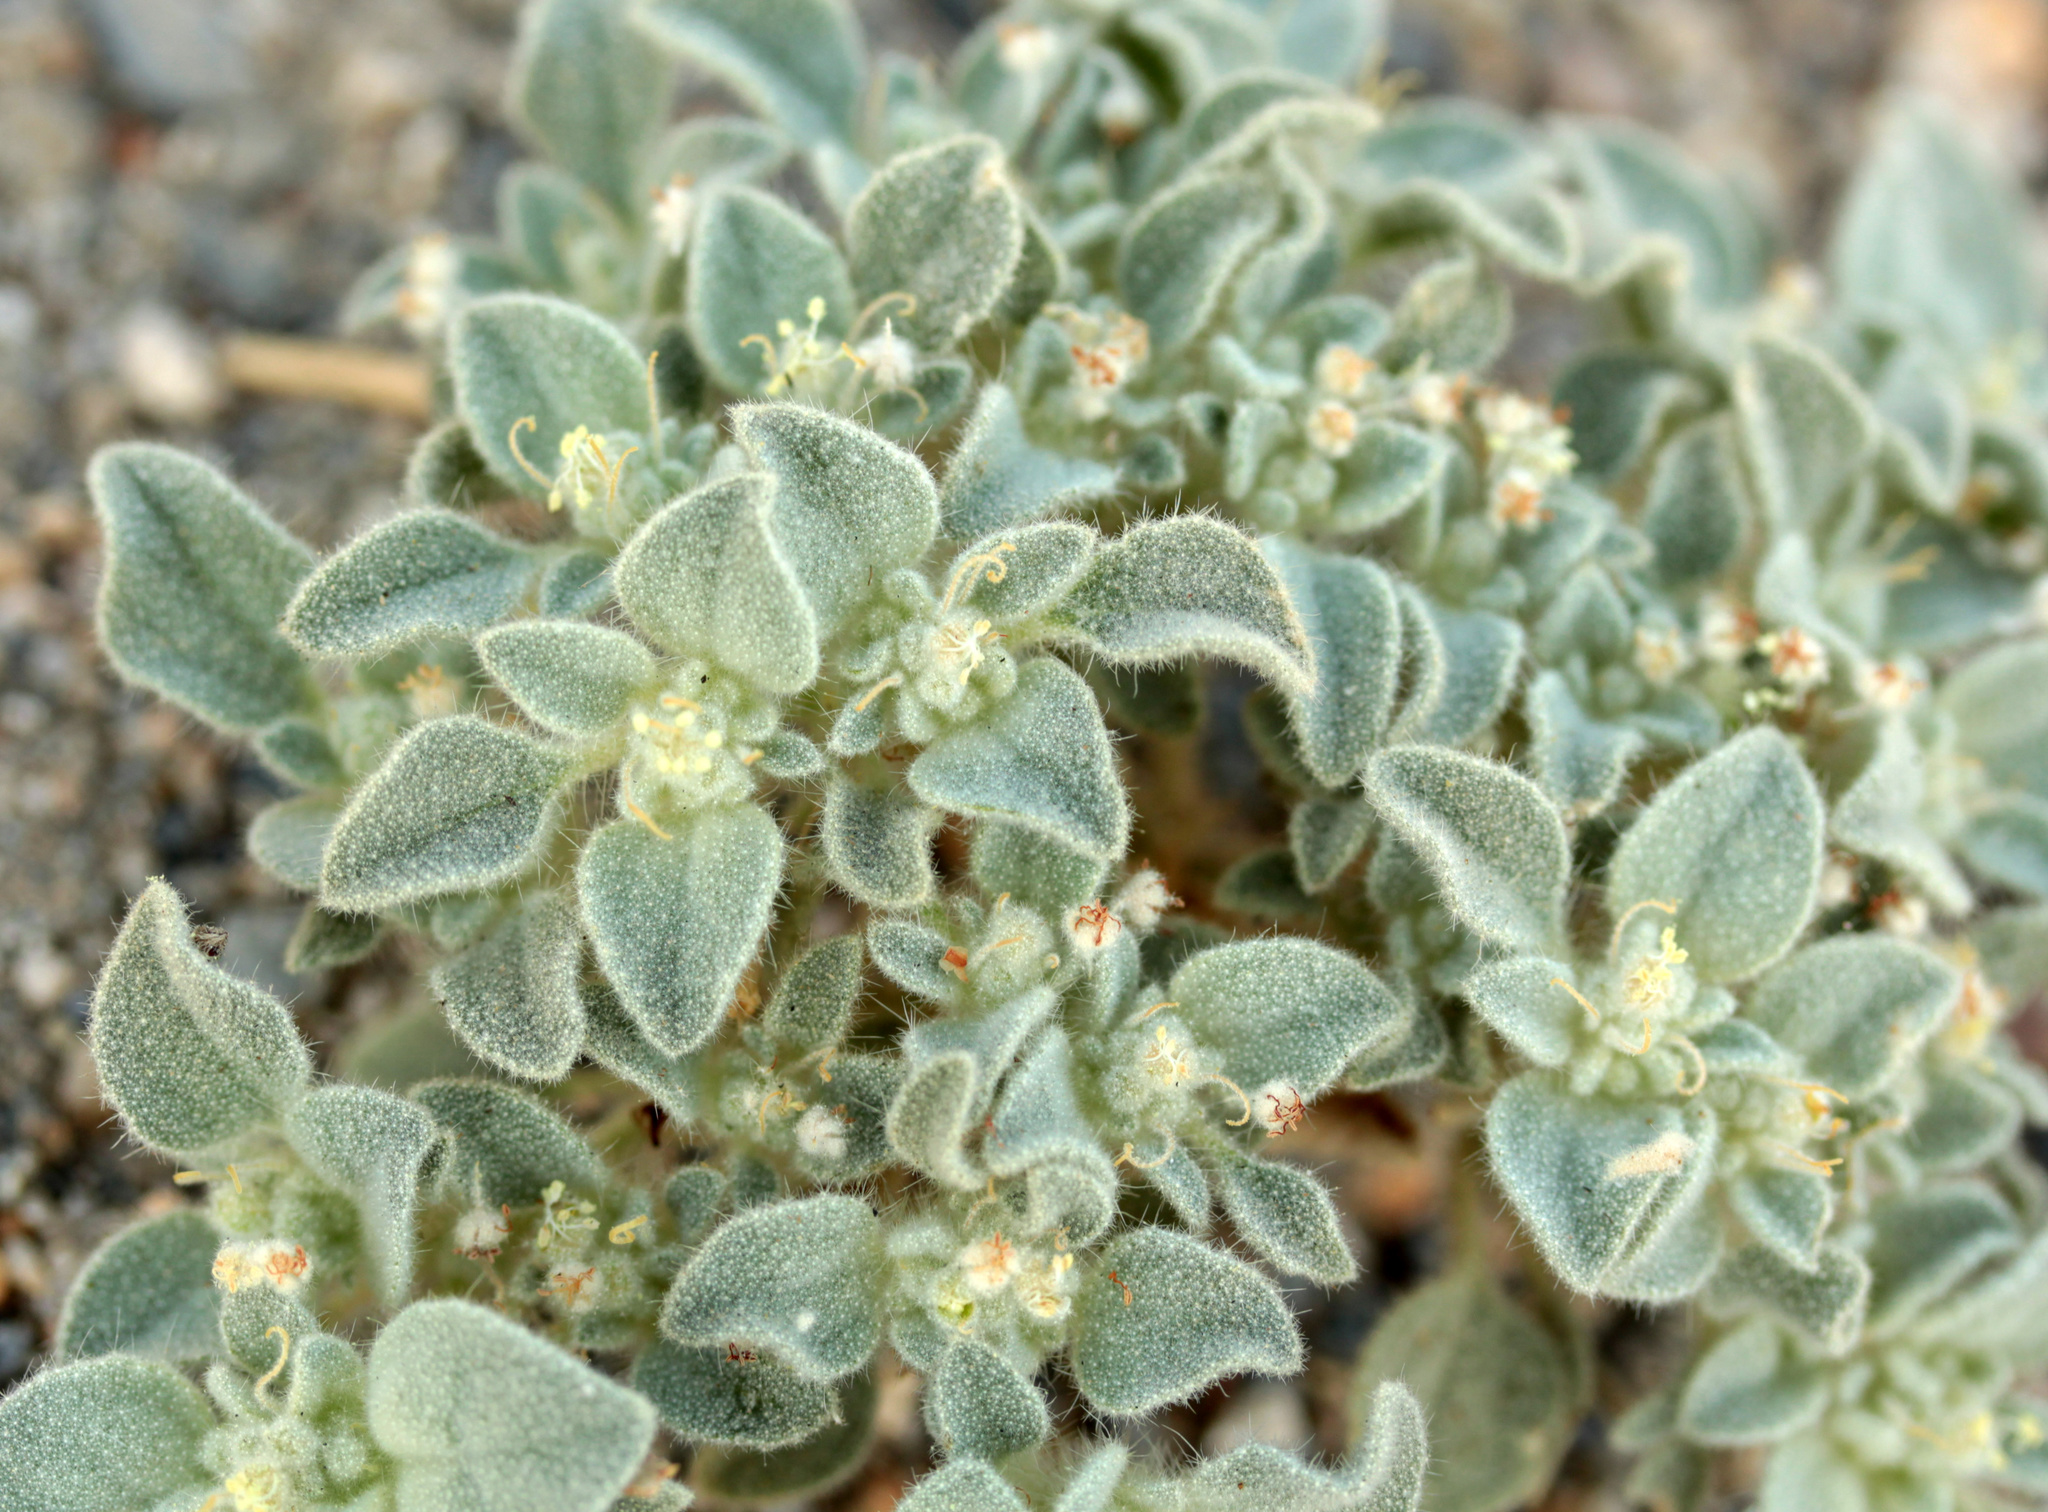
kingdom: Plantae
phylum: Tracheophyta
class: Magnoliopsida
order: Malpighiales
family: Euphorbiaceae
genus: Croton
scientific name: Croton setiger
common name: Dove weed
